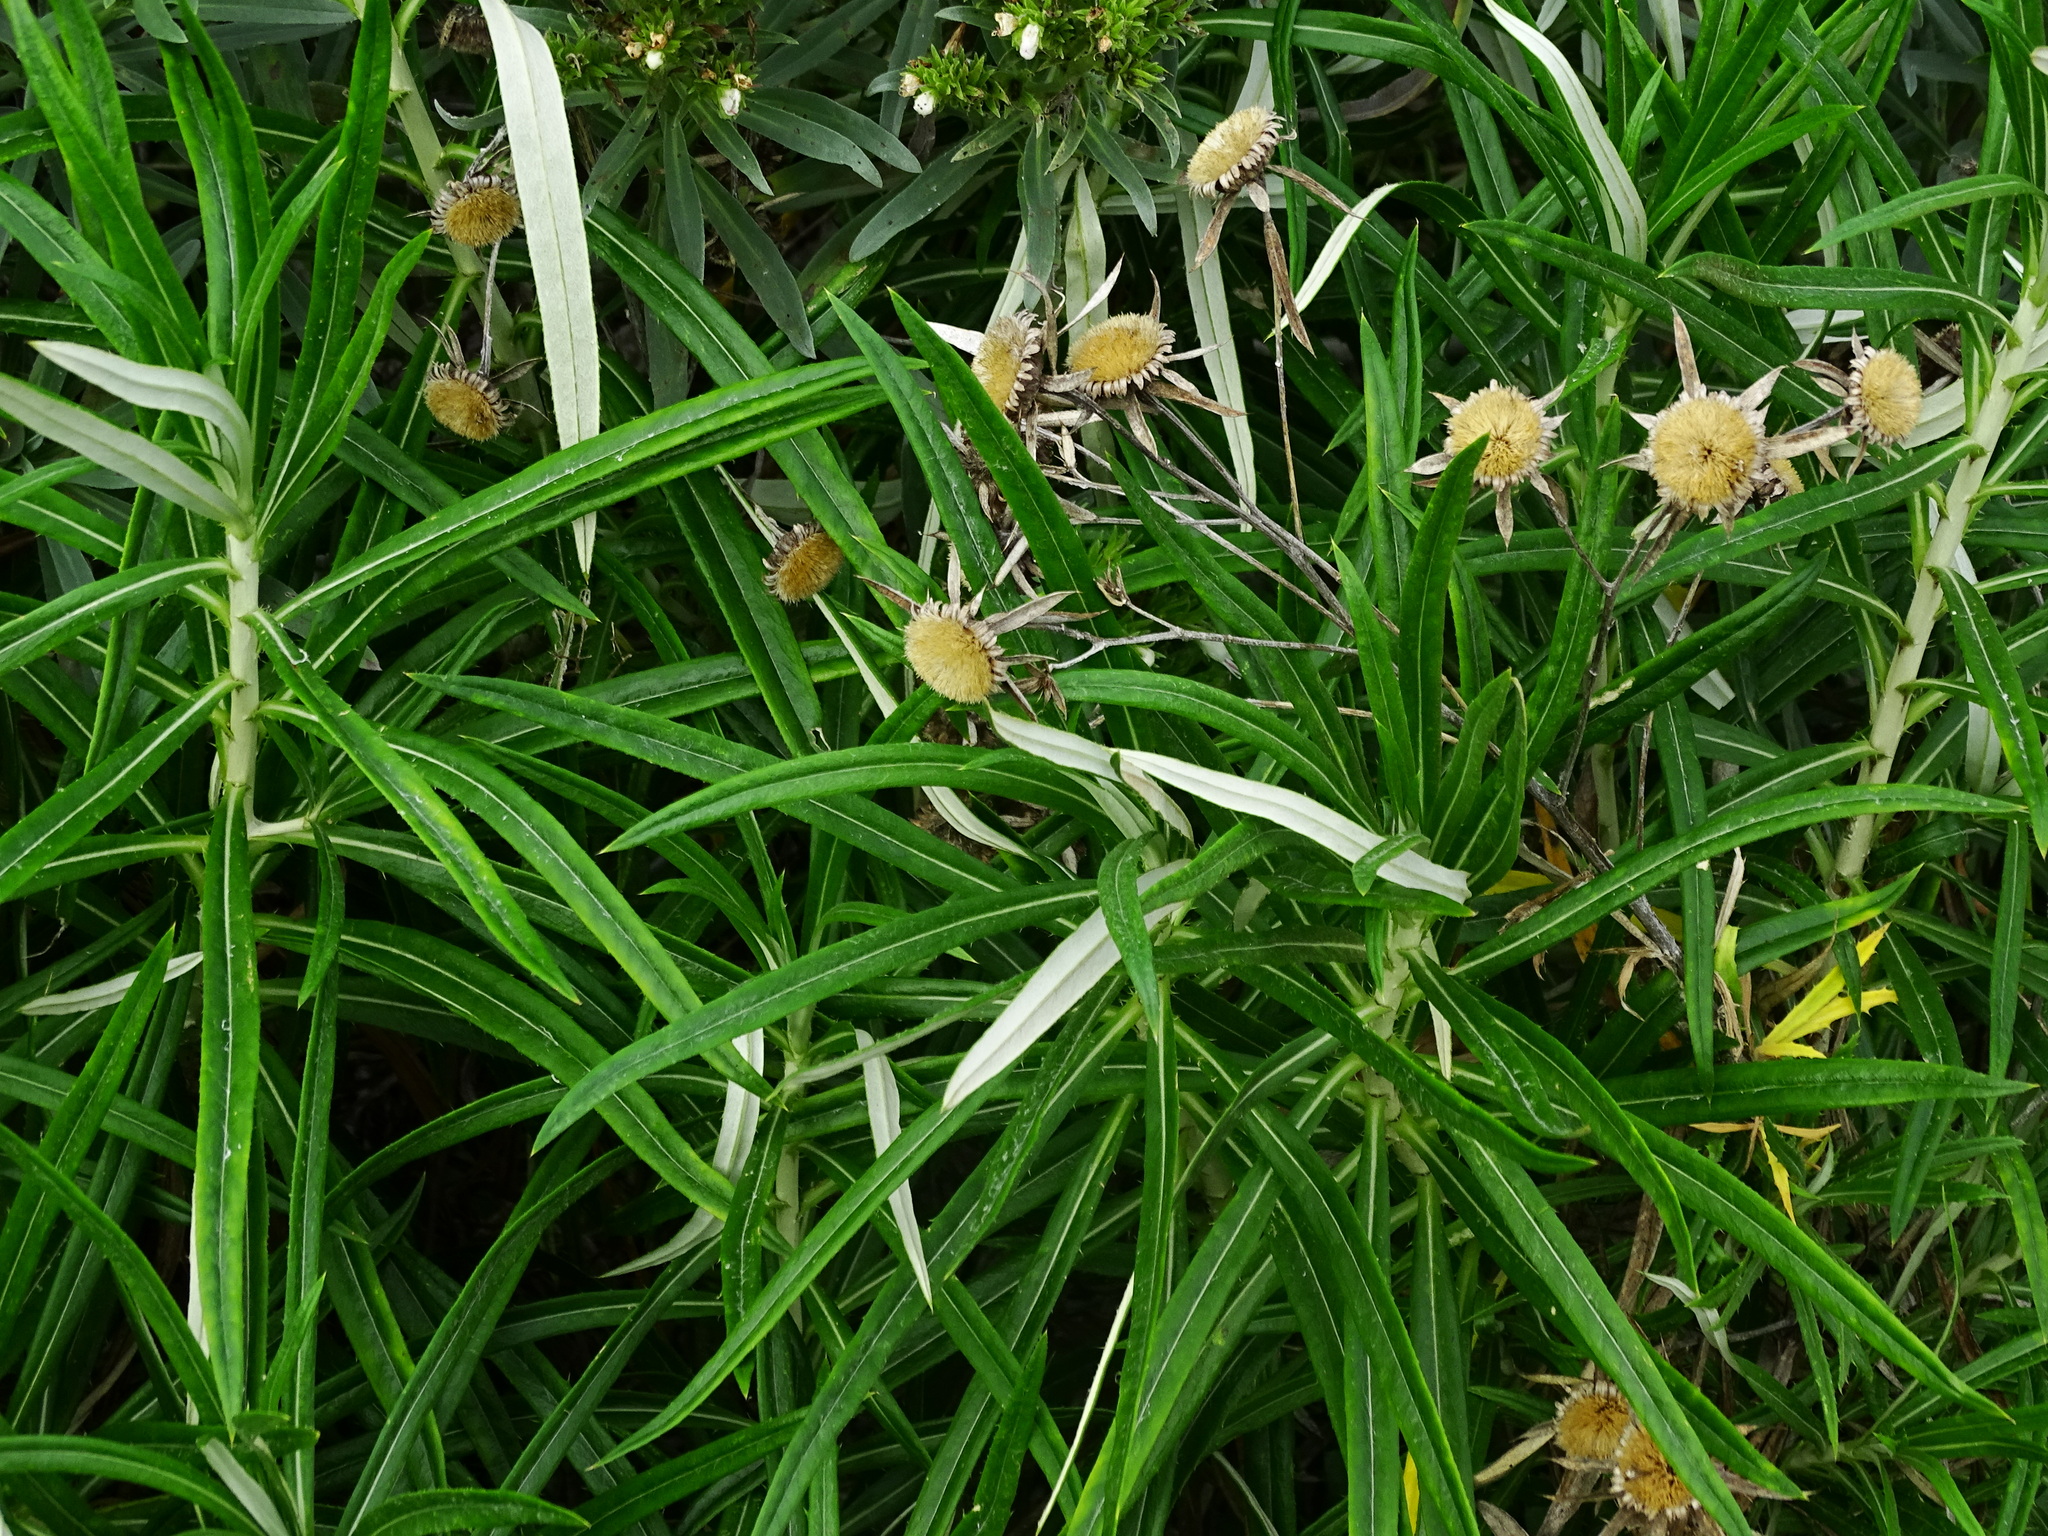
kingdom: Plantae
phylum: Tracheophyta
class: Magnoliopsida
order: Asterales
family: Asteraceae
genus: Carlina
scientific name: Carlina falcata
